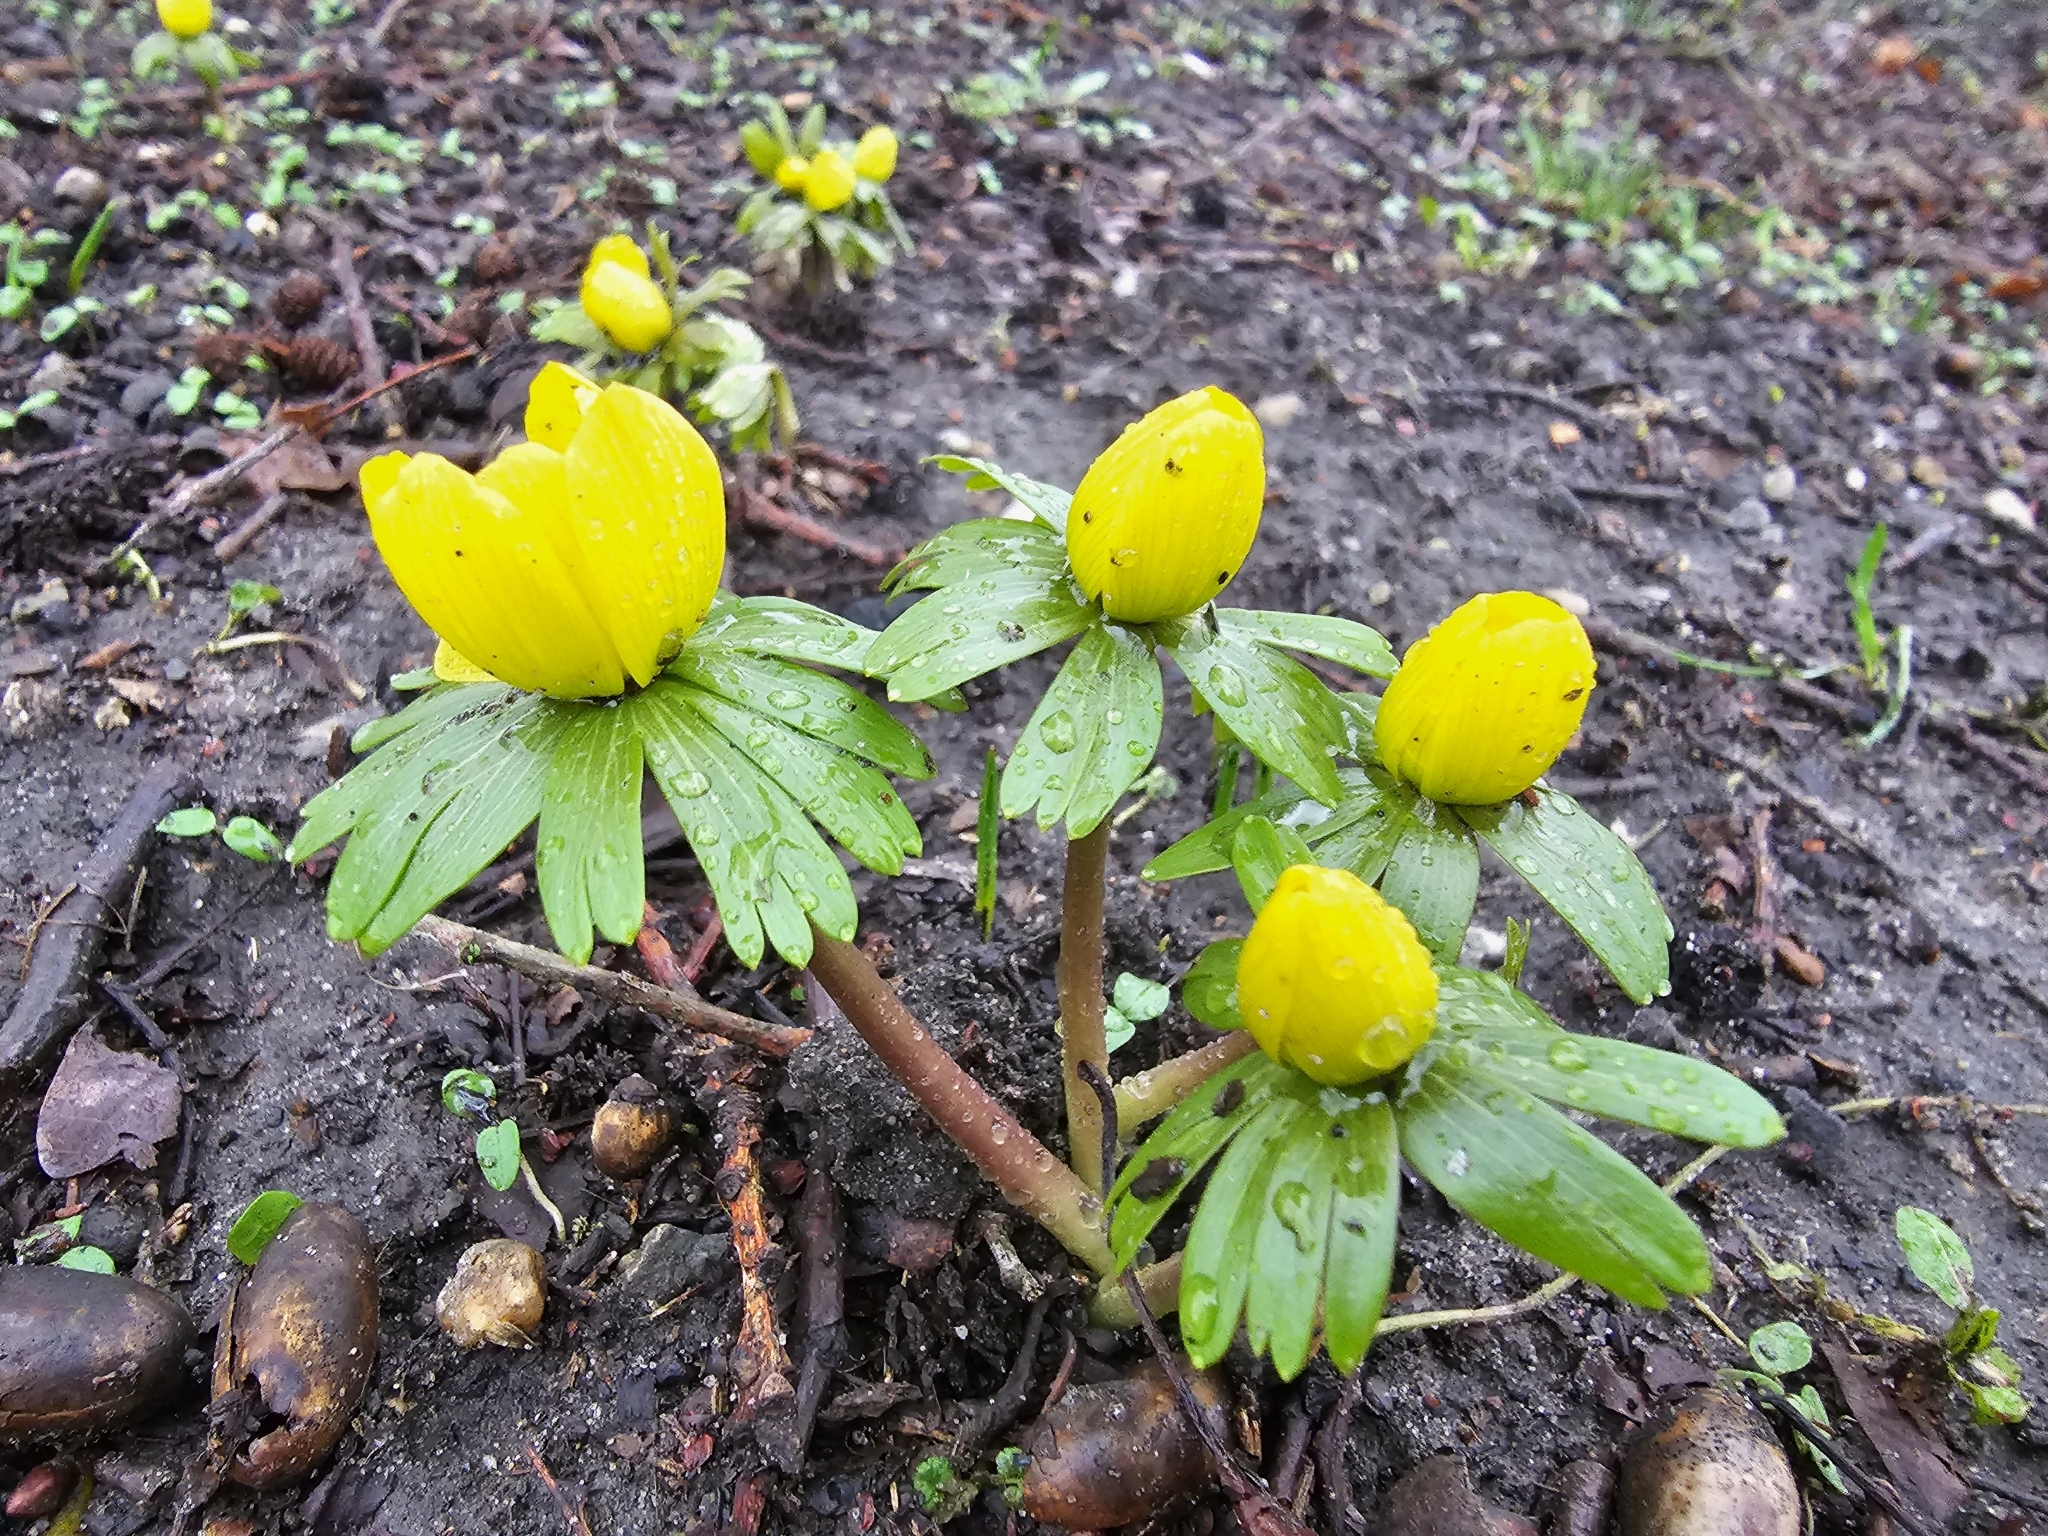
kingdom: Plantae
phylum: Tracheophyta
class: Magnoliopsida
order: Ranunculales
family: Ranunculaceae
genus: Eranthis
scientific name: Eranthis hyemalis
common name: Winter aconite
